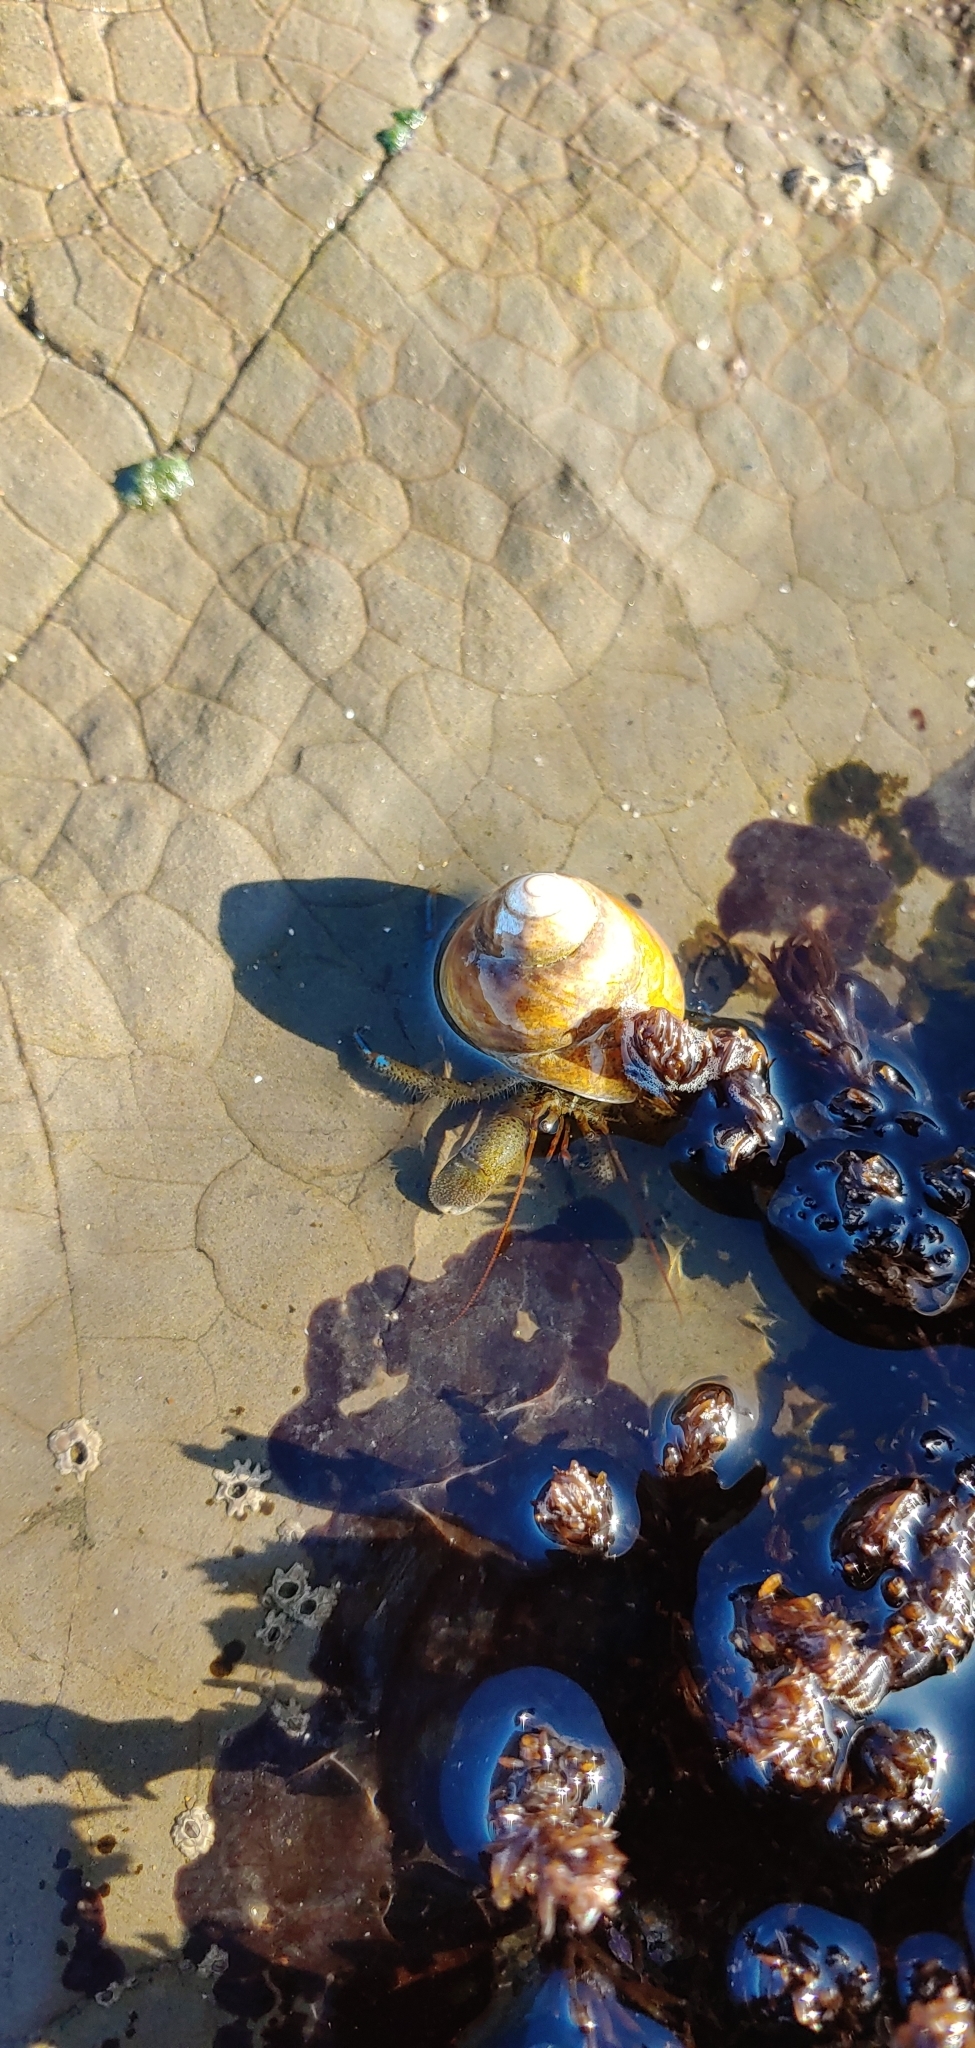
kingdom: Animalia
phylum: Arthropoda
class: Malacostraca
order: Decapoda
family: Paguridae
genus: Pagurus
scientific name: Pagurus samuelis
